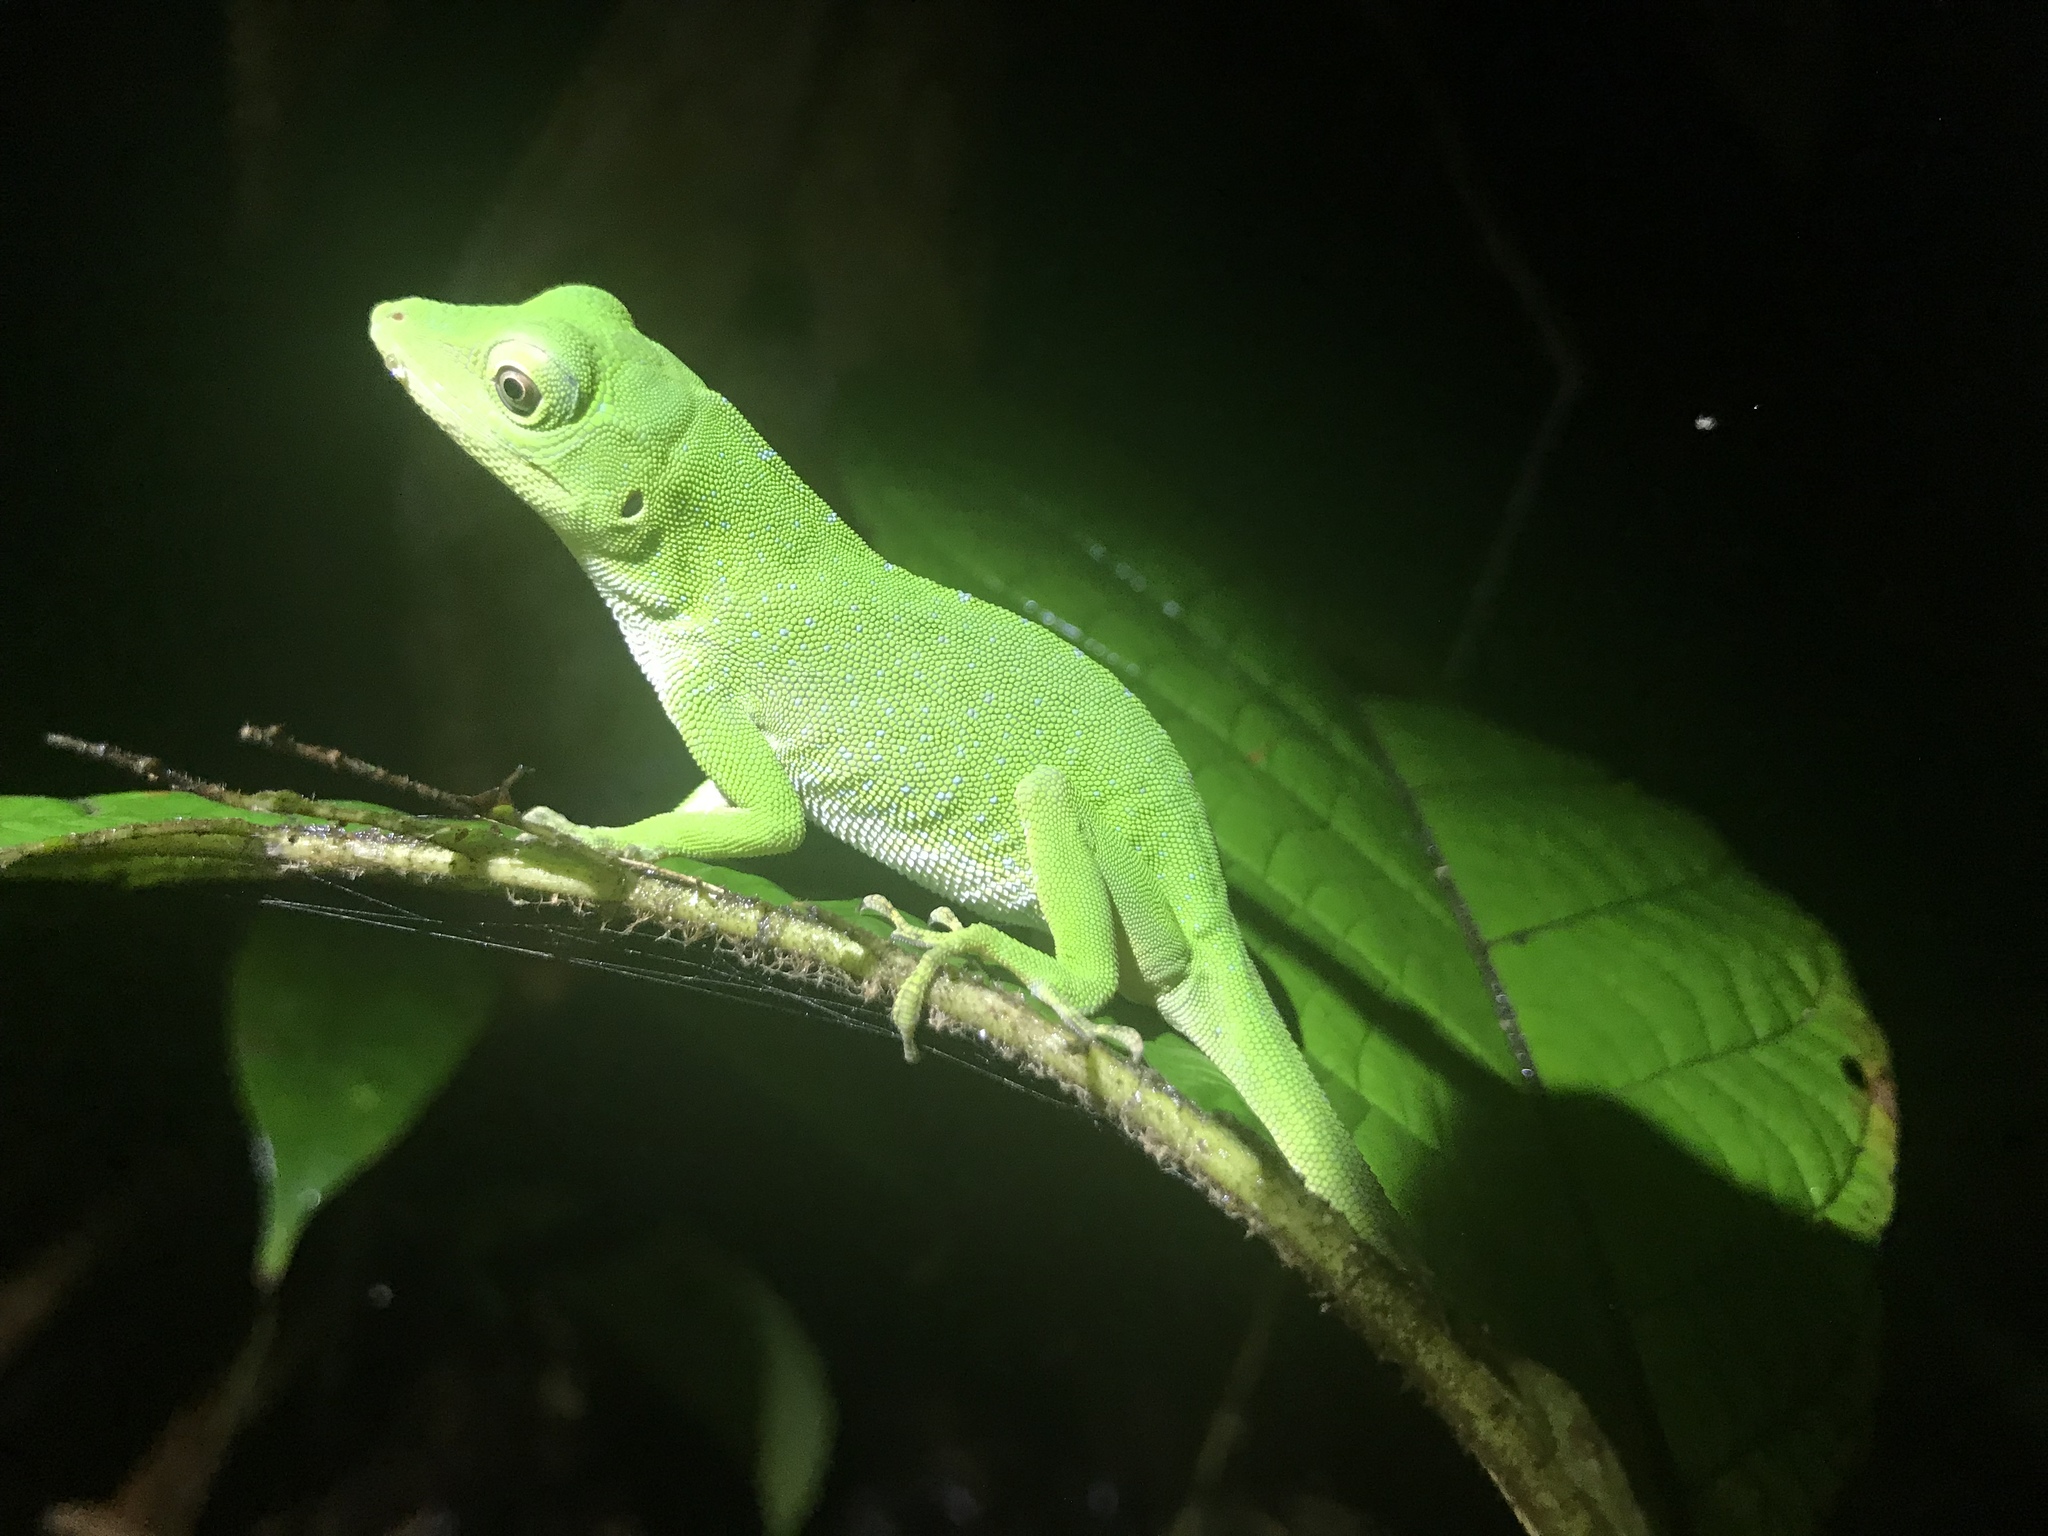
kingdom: Animalia
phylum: Chordata
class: Squamata
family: Dactyloidae
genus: Anolis
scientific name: Anolis biporcatus
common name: Giant green anole
